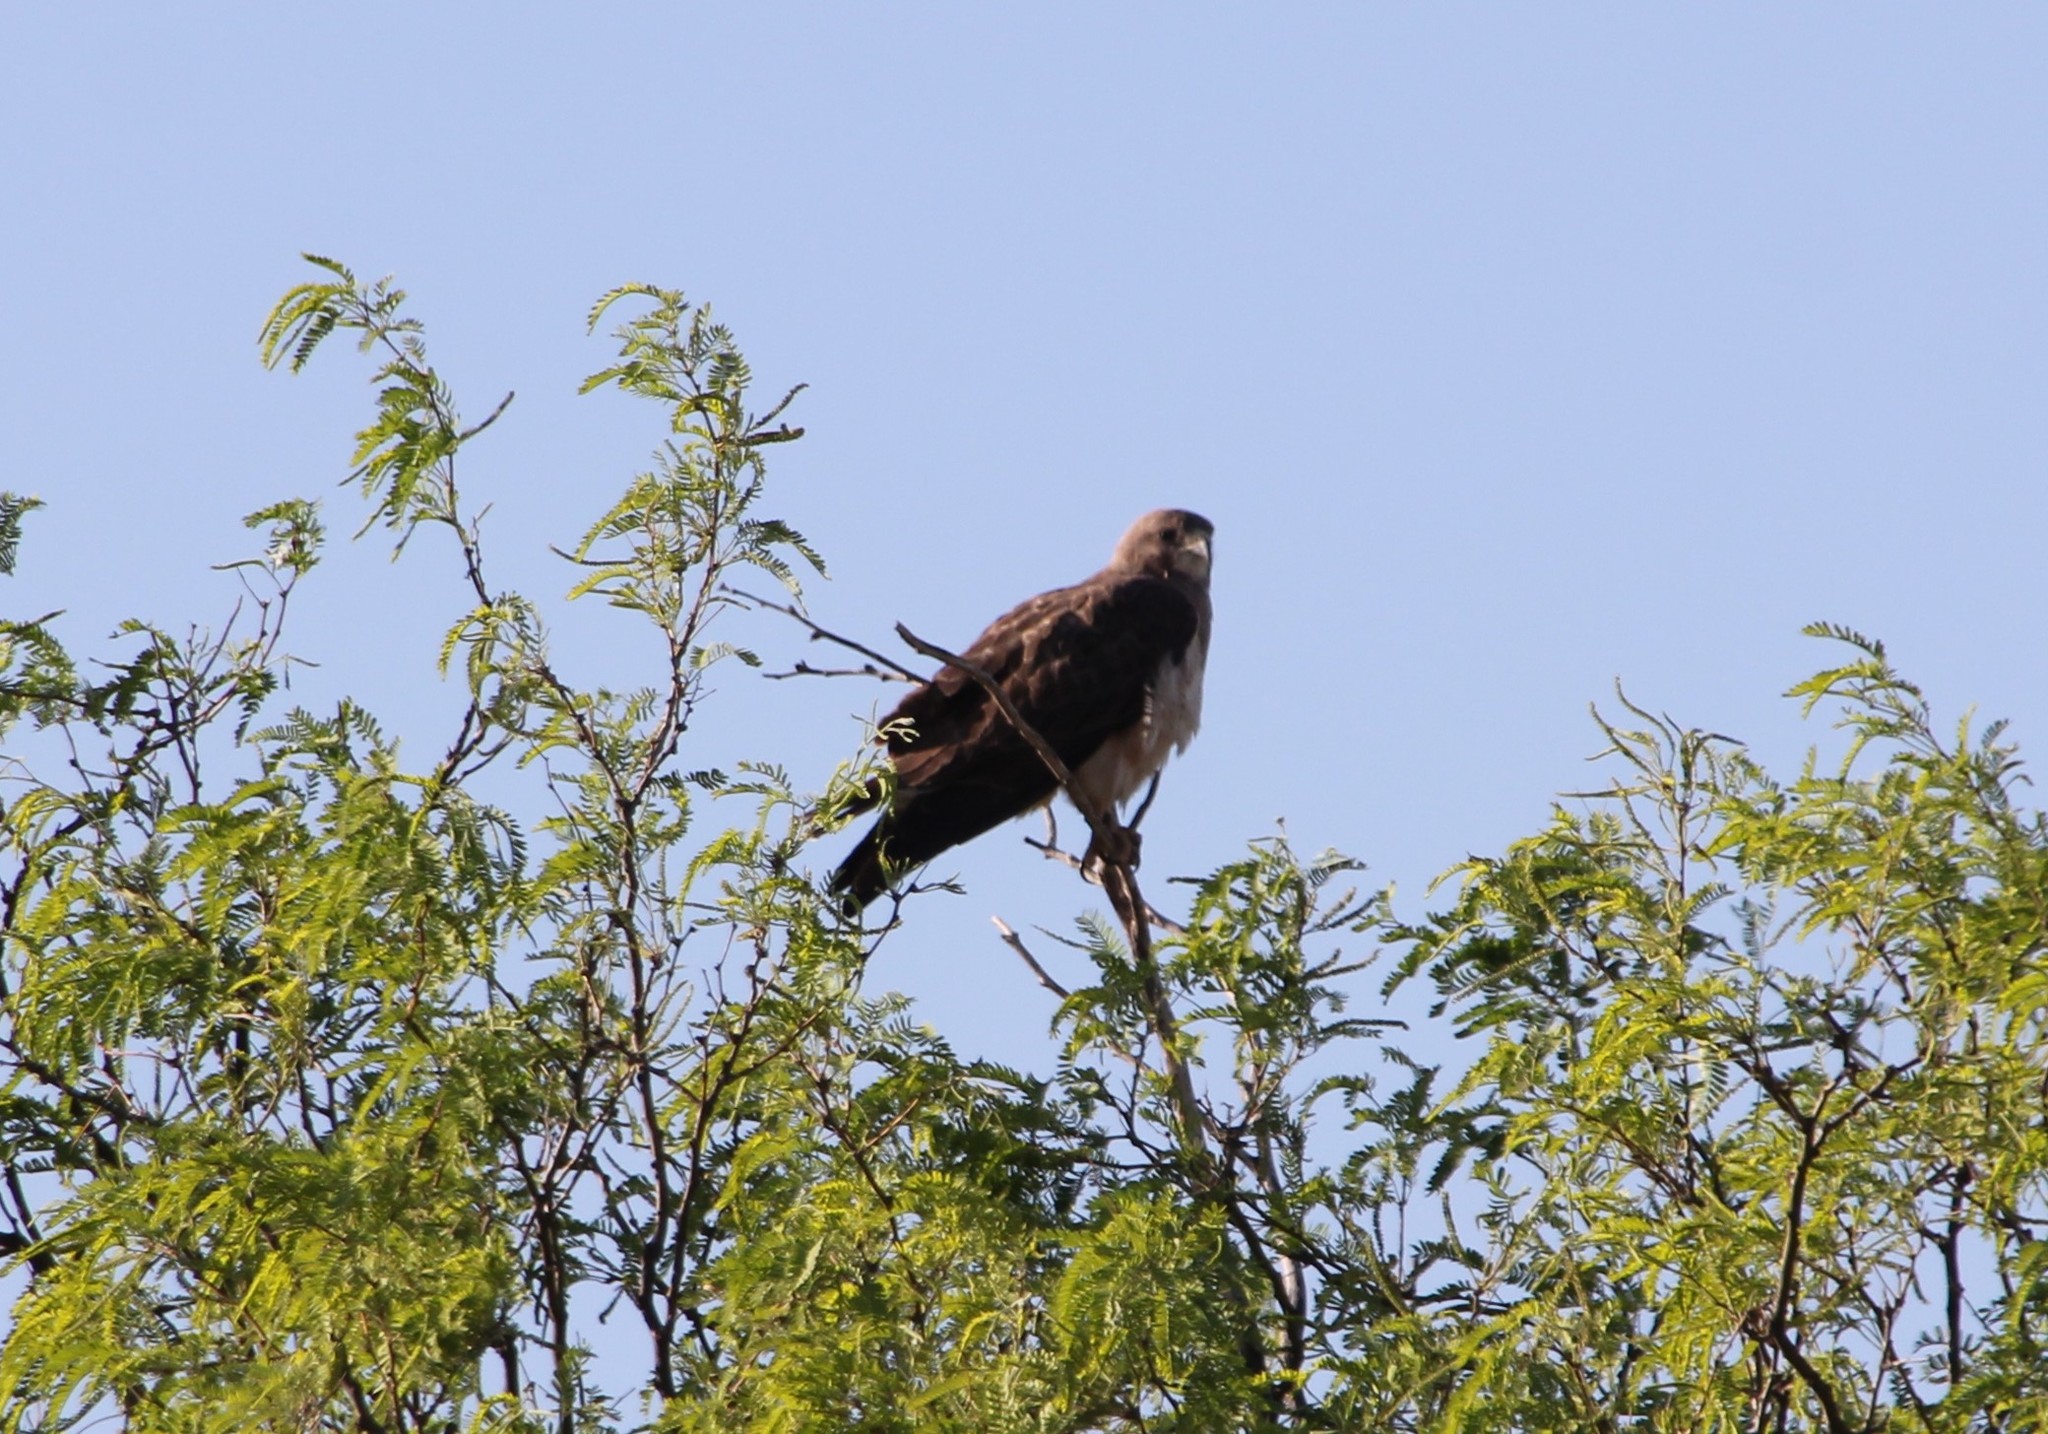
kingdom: Animalia
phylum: Chordata
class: Aves
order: Accipitriformes
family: Accipitridae
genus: Buteo
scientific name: Buteo swainsoni
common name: Swainson's hawk
